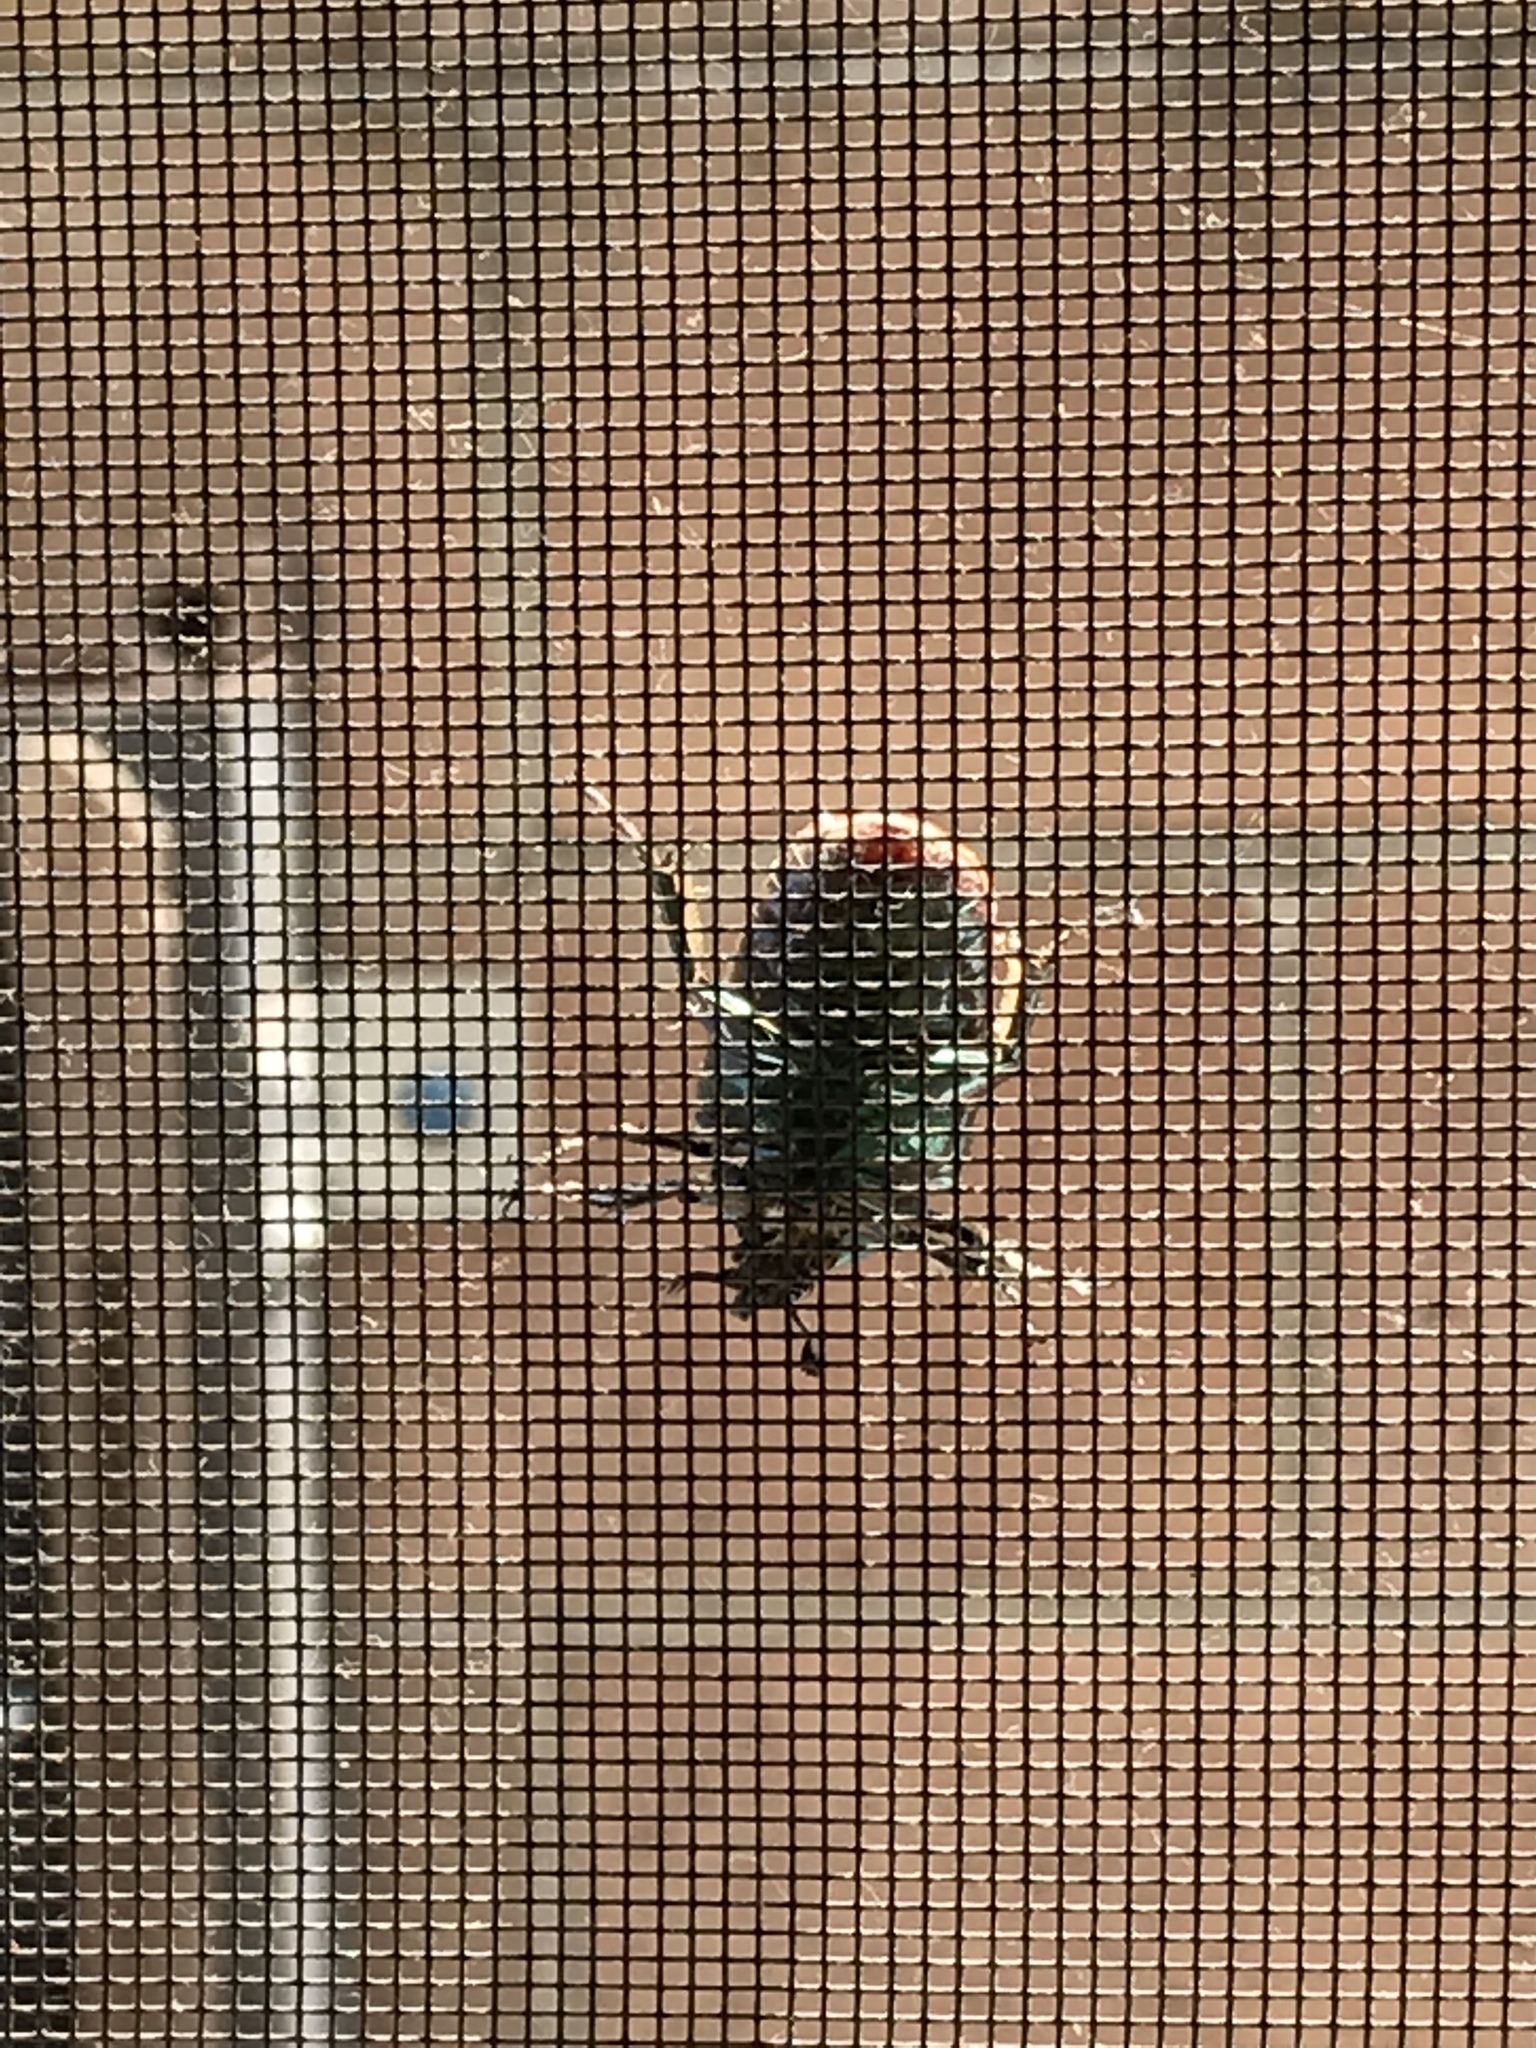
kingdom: Animalia
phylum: Arthropoda
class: Insecta
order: Coleoptera
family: Scarabaeidae
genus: Cotinis
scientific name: Cotinis mutabilis
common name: Figeater beetle
